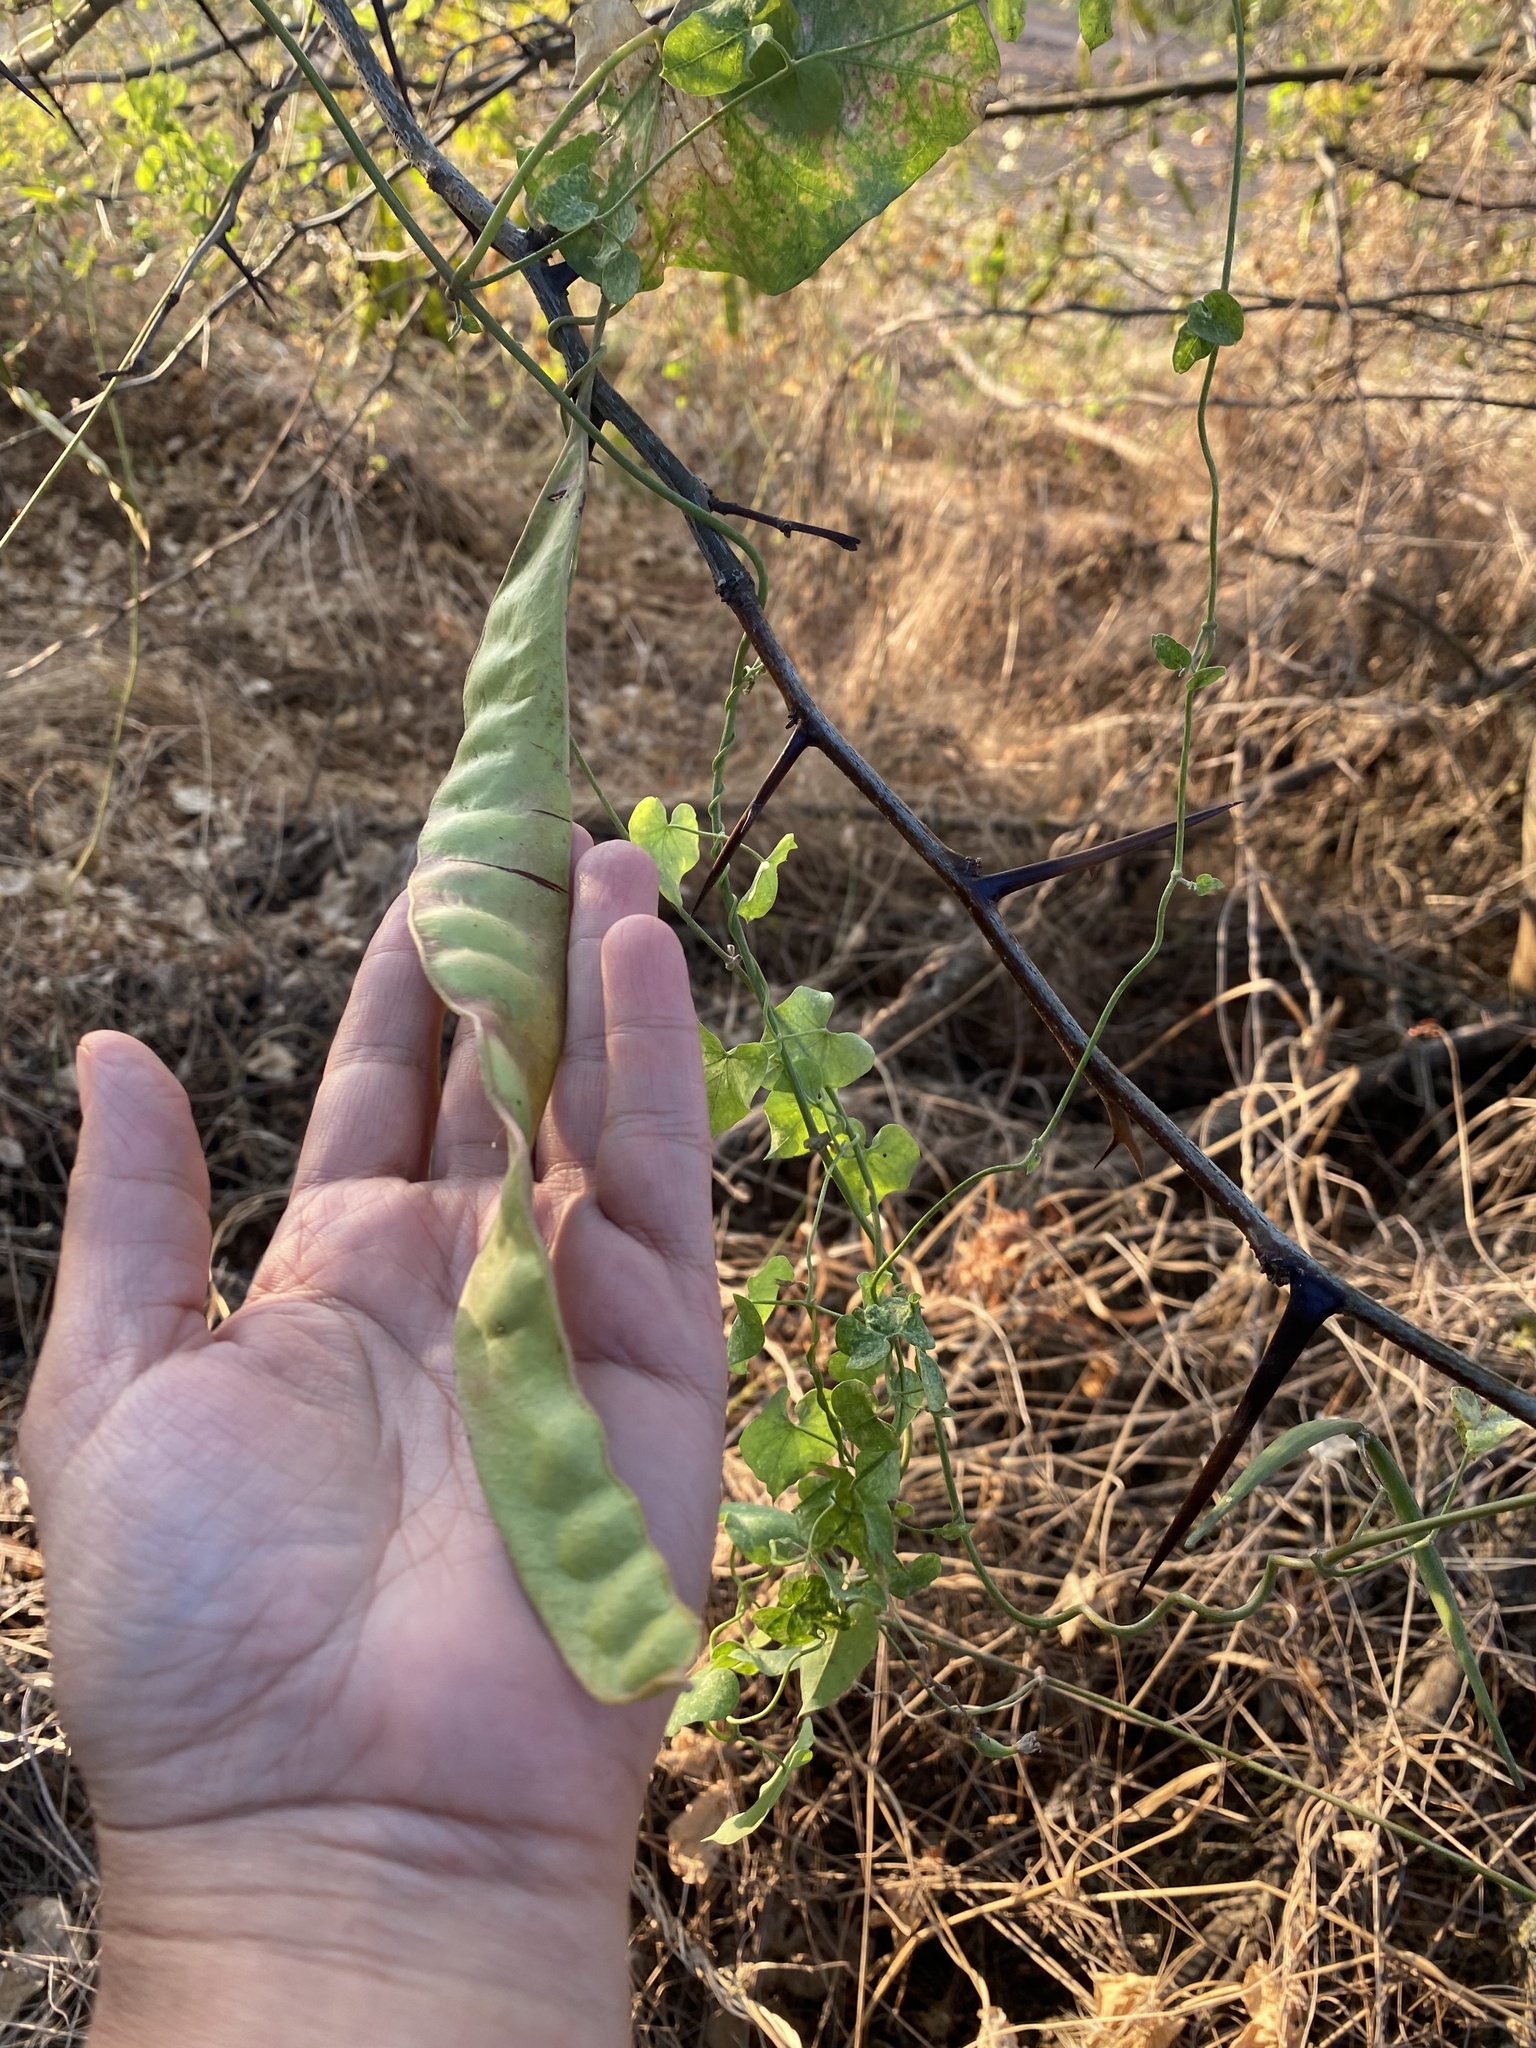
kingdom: Plantae
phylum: Tracheophyta
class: Magnoliopsida
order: Fabales
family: Fabaceae
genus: Gleditsia
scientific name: Gleditsia triacanthos
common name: Common honeylocust
